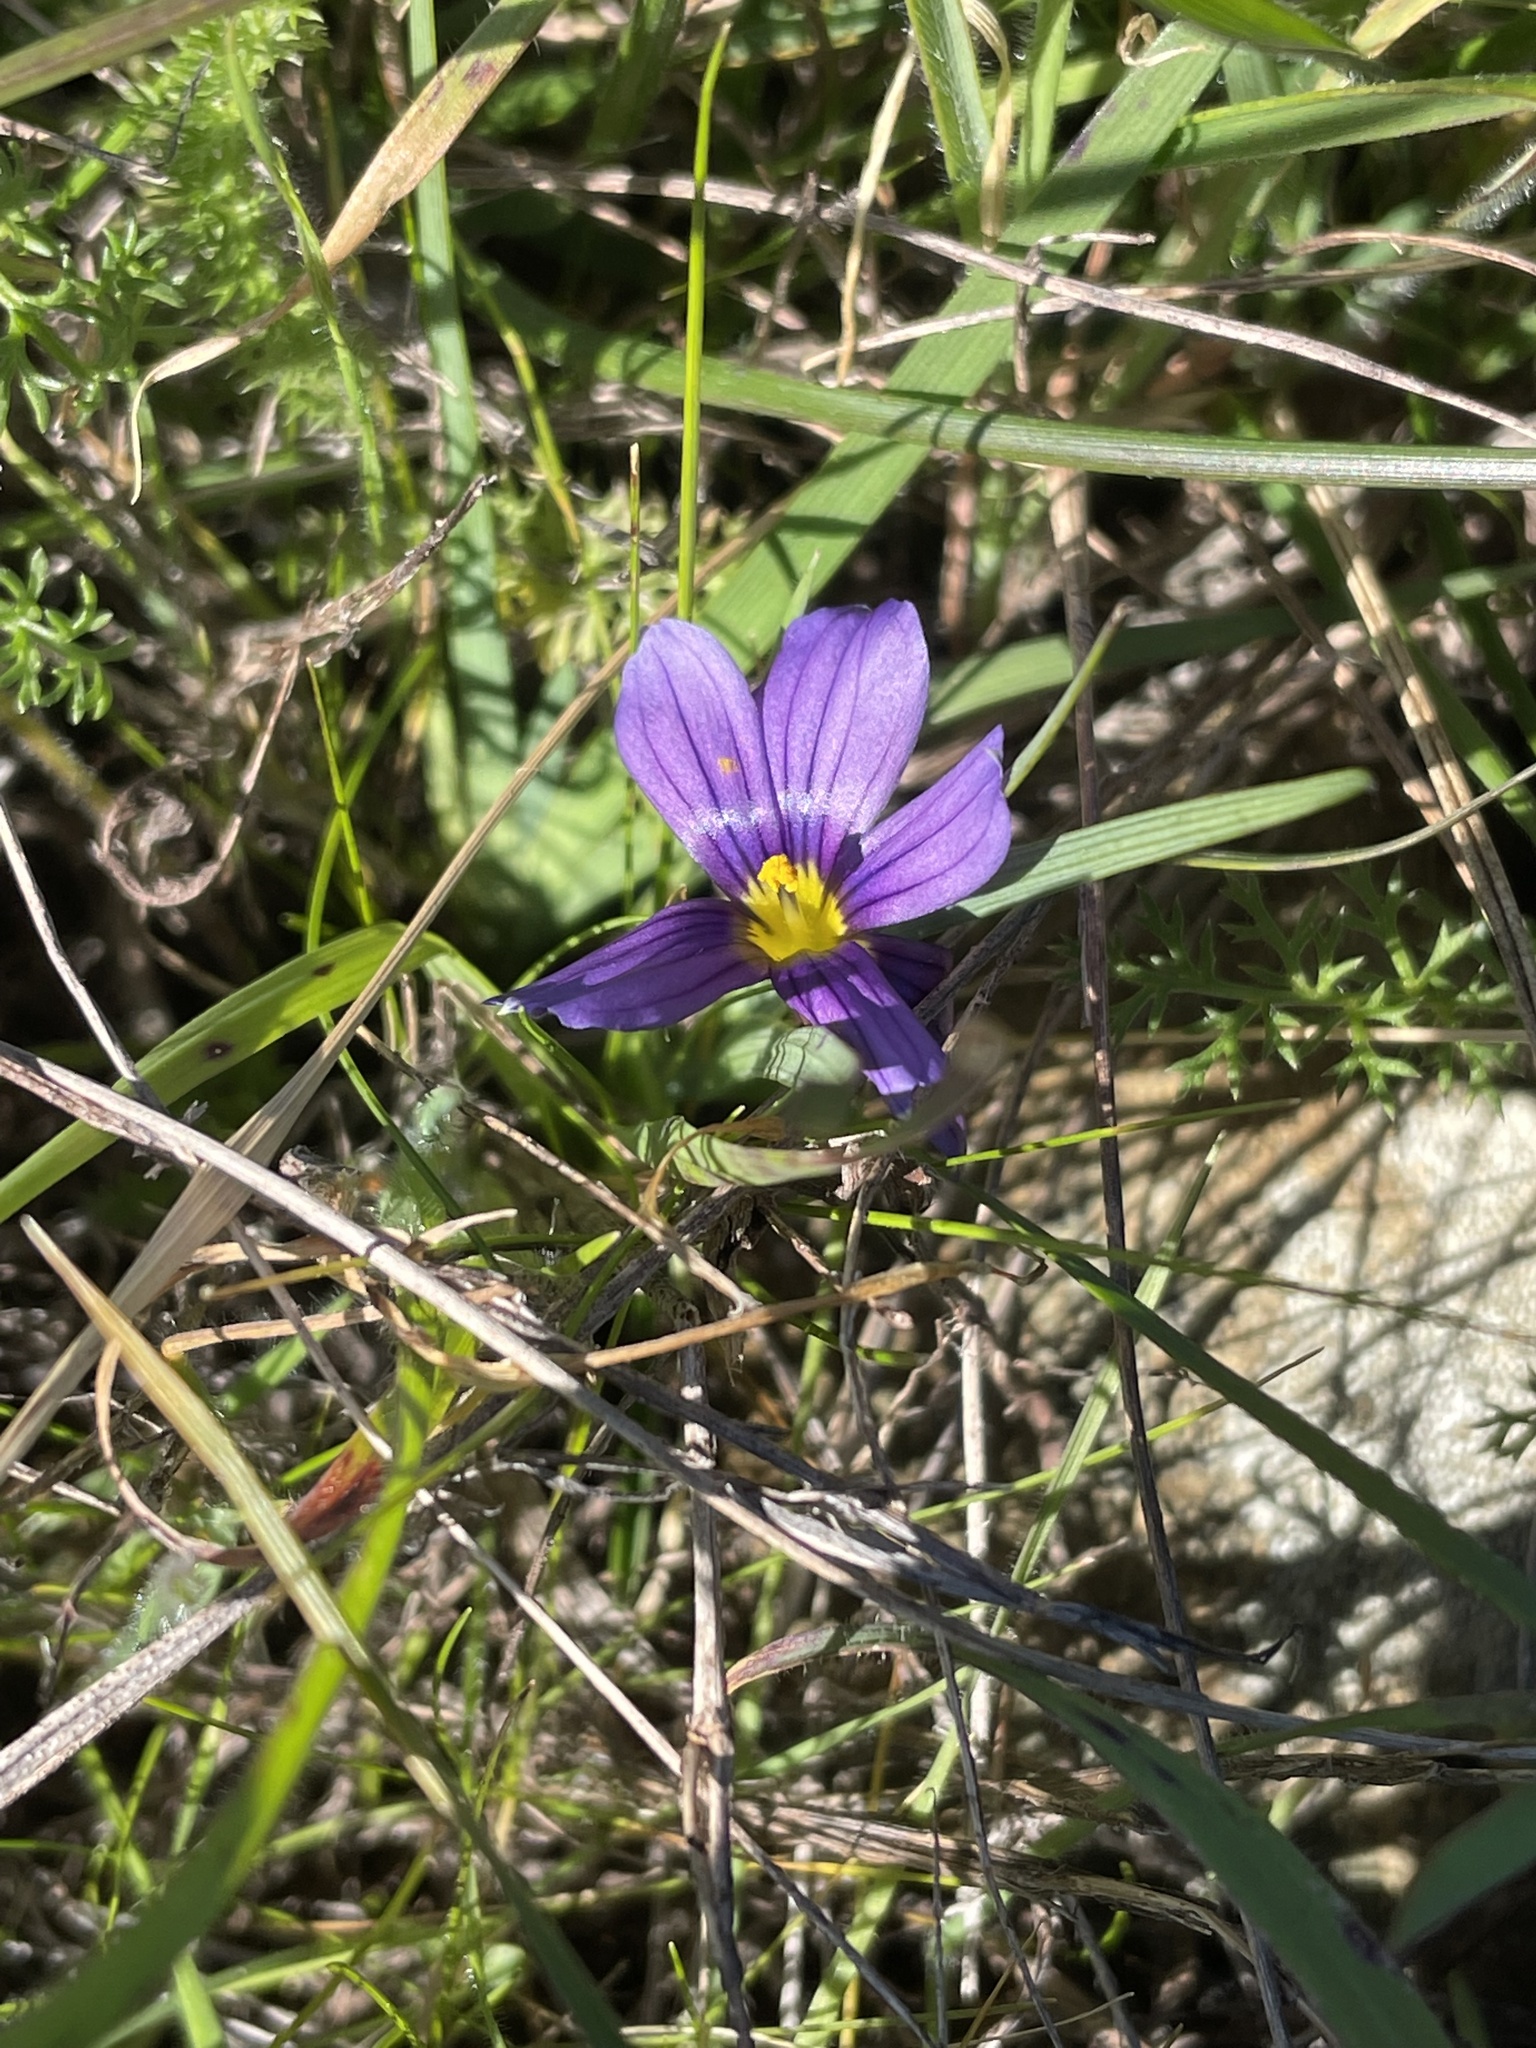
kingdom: Plantae
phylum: Tracheophyta
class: Liliopsida
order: Asparagales
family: Iridaceae
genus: Sisyrinchium
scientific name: Sisyrinchium bellum
